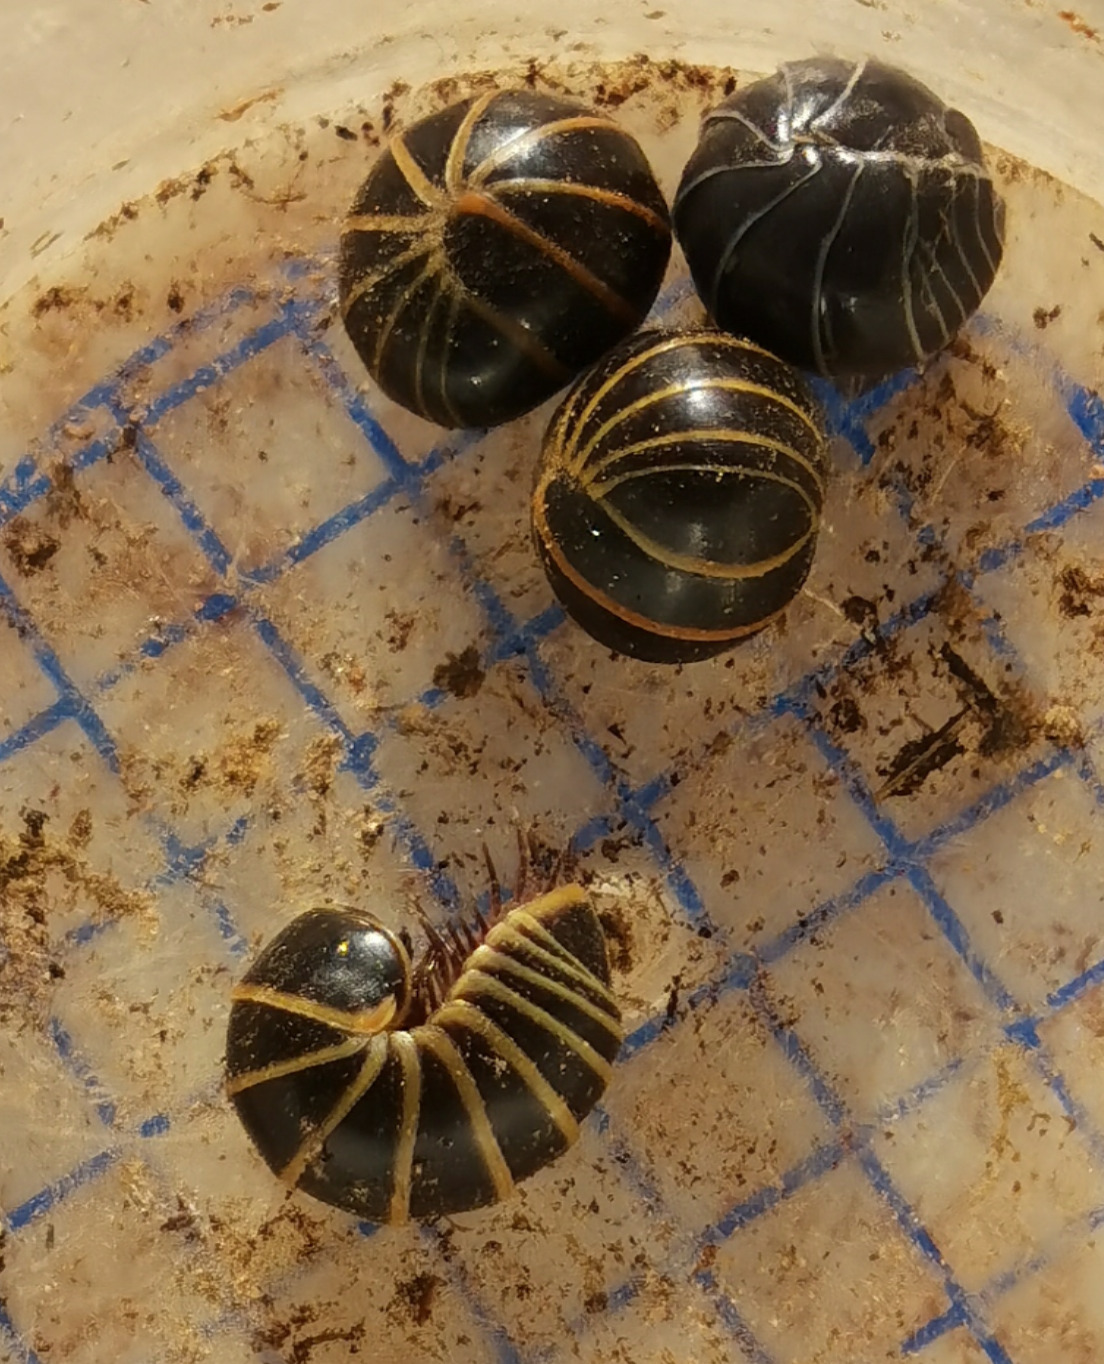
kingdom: Animalia
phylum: Arthropoda
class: Diplopoda
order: Glomerida
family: Glomeridae
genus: Glomeris
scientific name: Glomeris marginata
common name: Bordered pill millipede
